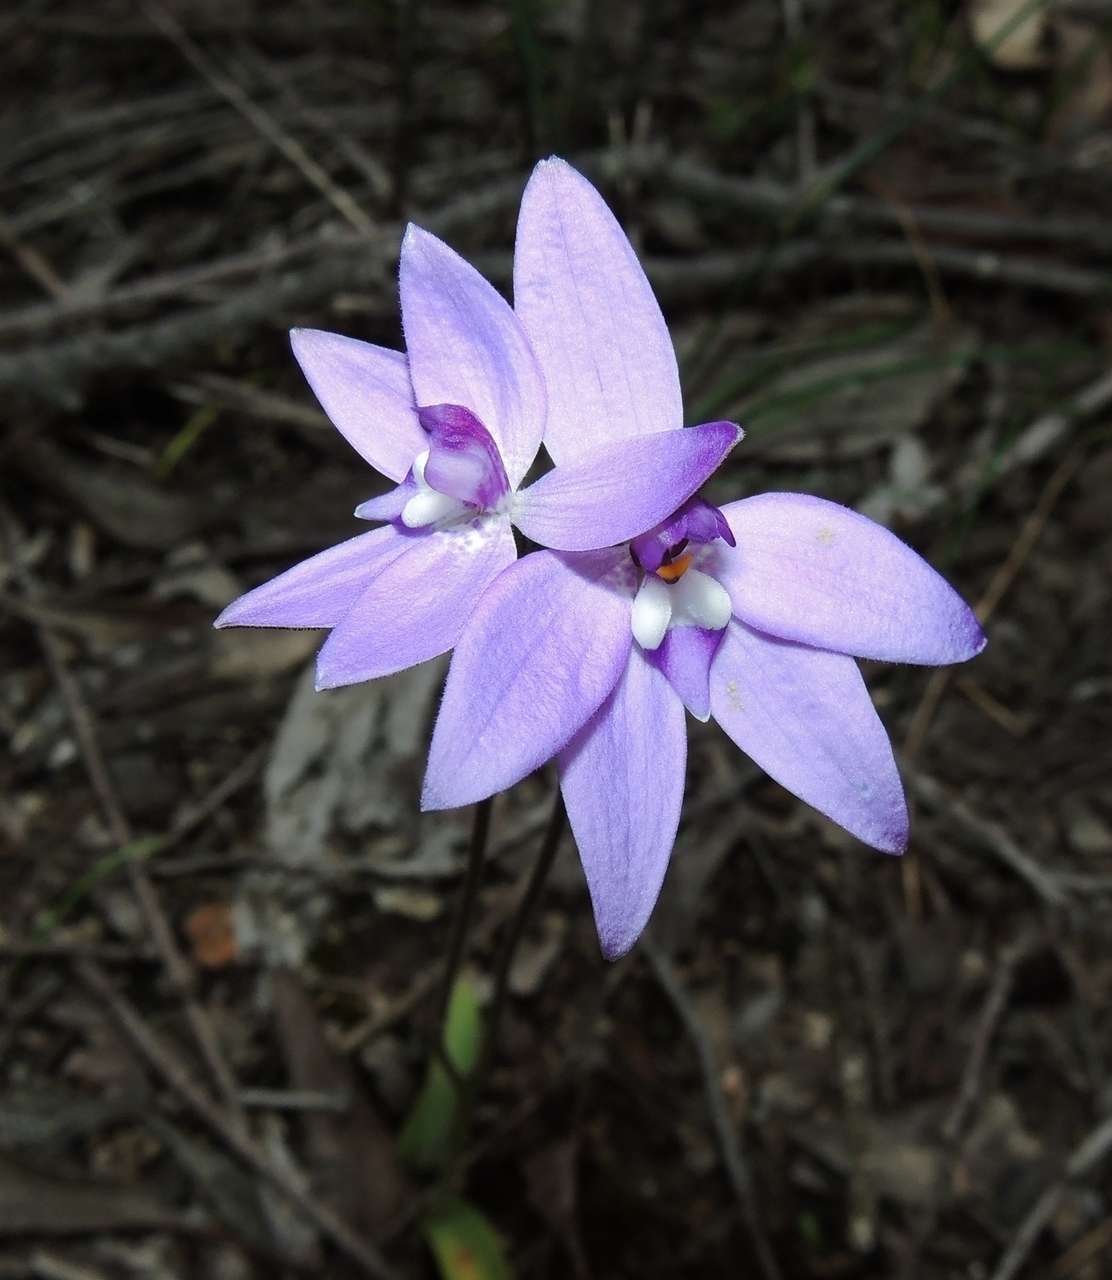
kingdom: Plantae
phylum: Tracheophyta
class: Liliopsida
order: Asparagales
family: Orchidaceae
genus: Caladenia
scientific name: Caladenia major
